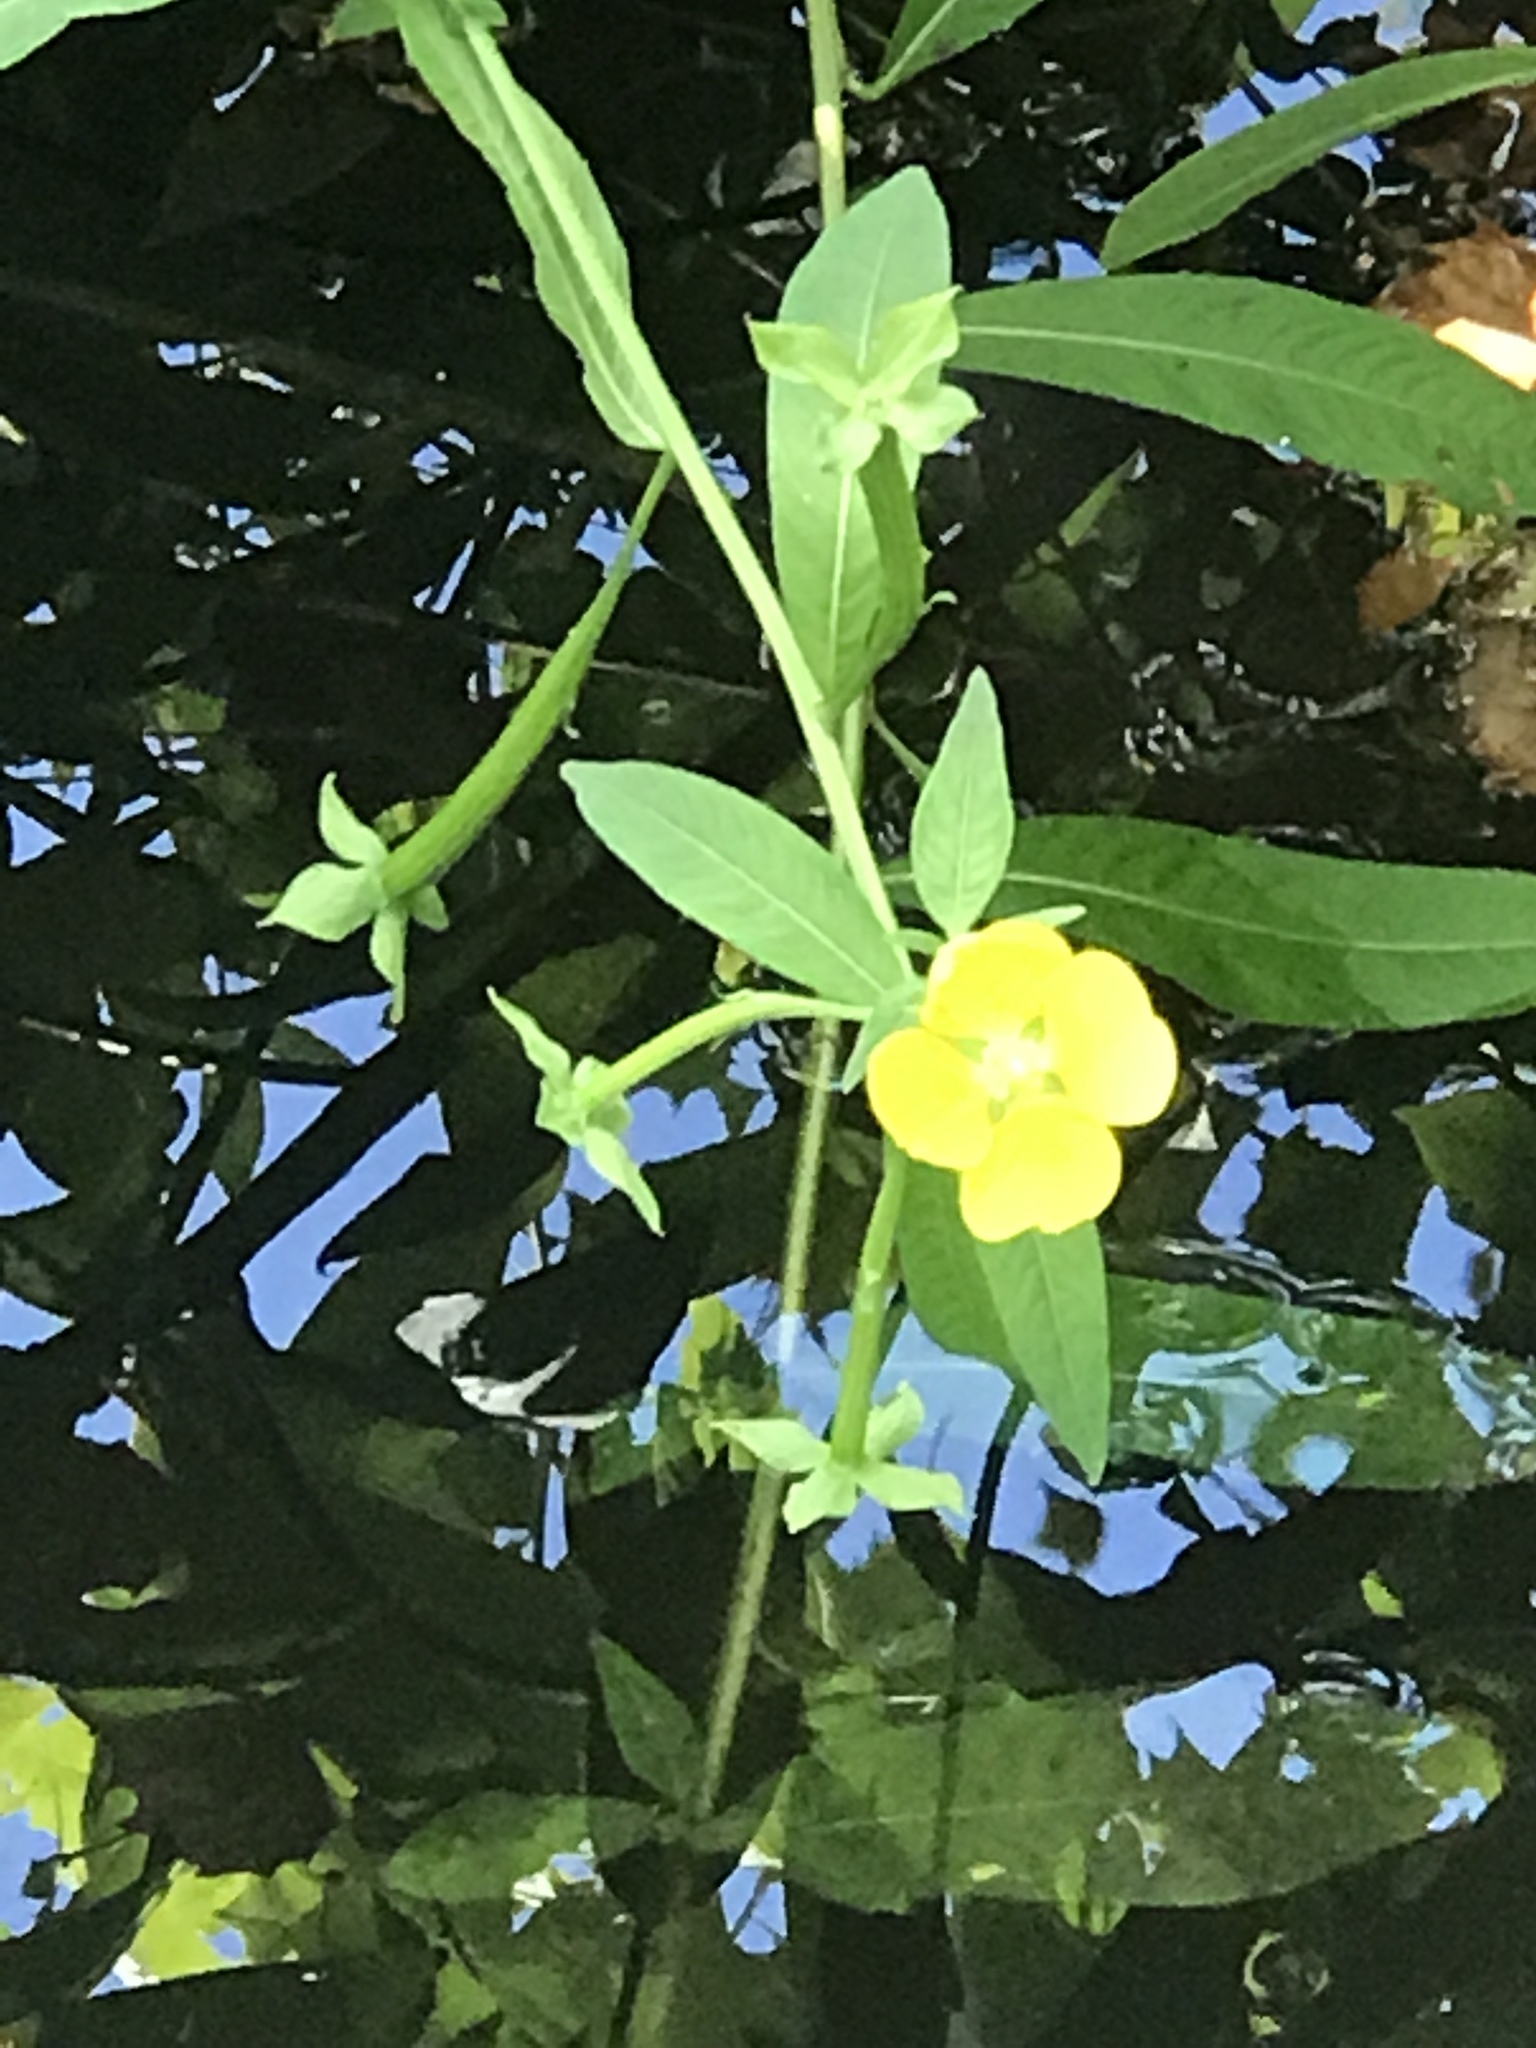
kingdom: Plantae
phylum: Tracheophyta
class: Magnoliopsida
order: Myrtales
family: Onagraceae
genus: Ludwigia
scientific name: Ludwigia octovalvis
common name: Water-primrose
